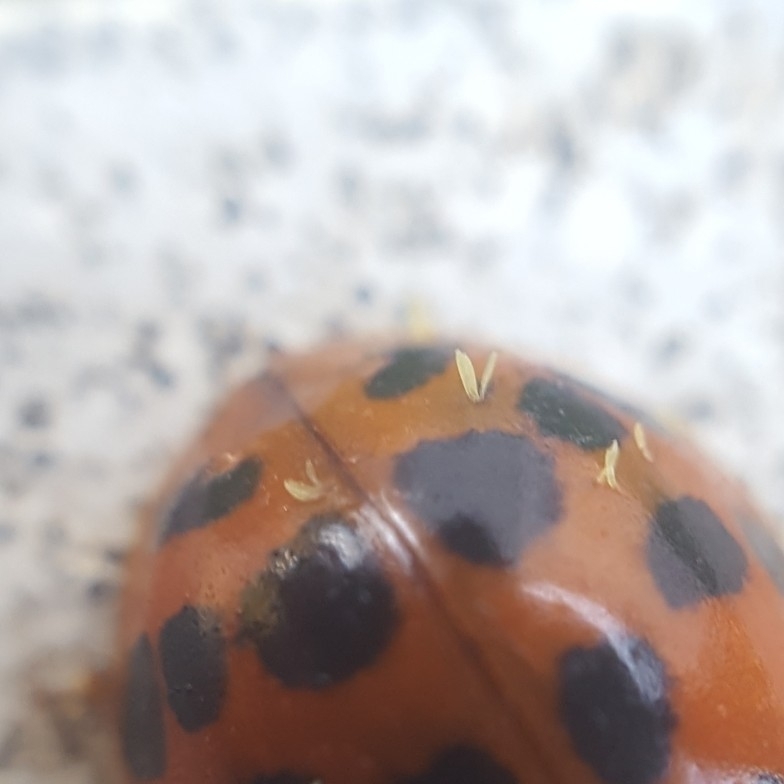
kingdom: Fungi
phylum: Ascomycota
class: Laboulbeniomycetes
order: Laboulbeniales
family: Laboulbeniaceae
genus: Hesperomyces
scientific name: Hesperomyces harmoniae
